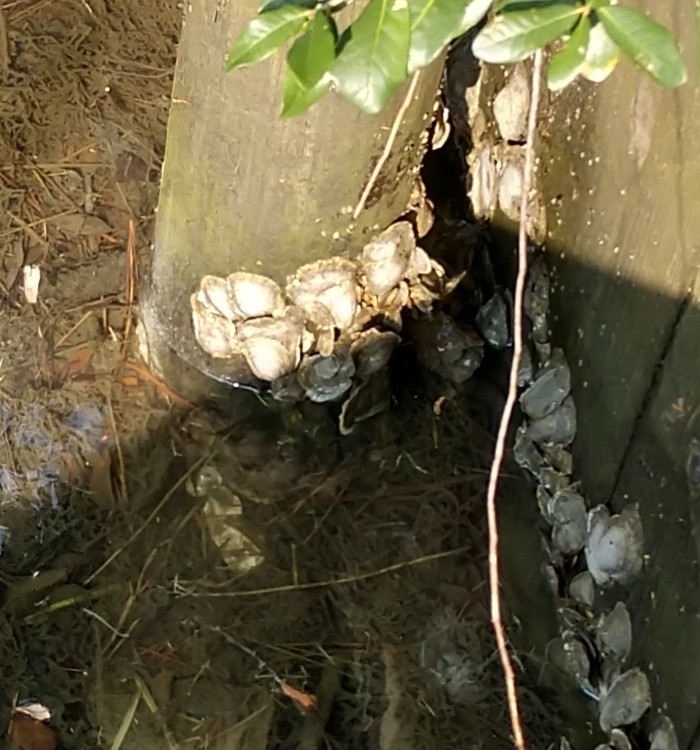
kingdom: Animalia
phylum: Mollusca
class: Bivalvia
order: Ostreida
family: Ostreidae
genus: Crassostrea
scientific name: Crassostrea virginica
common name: American oyster
